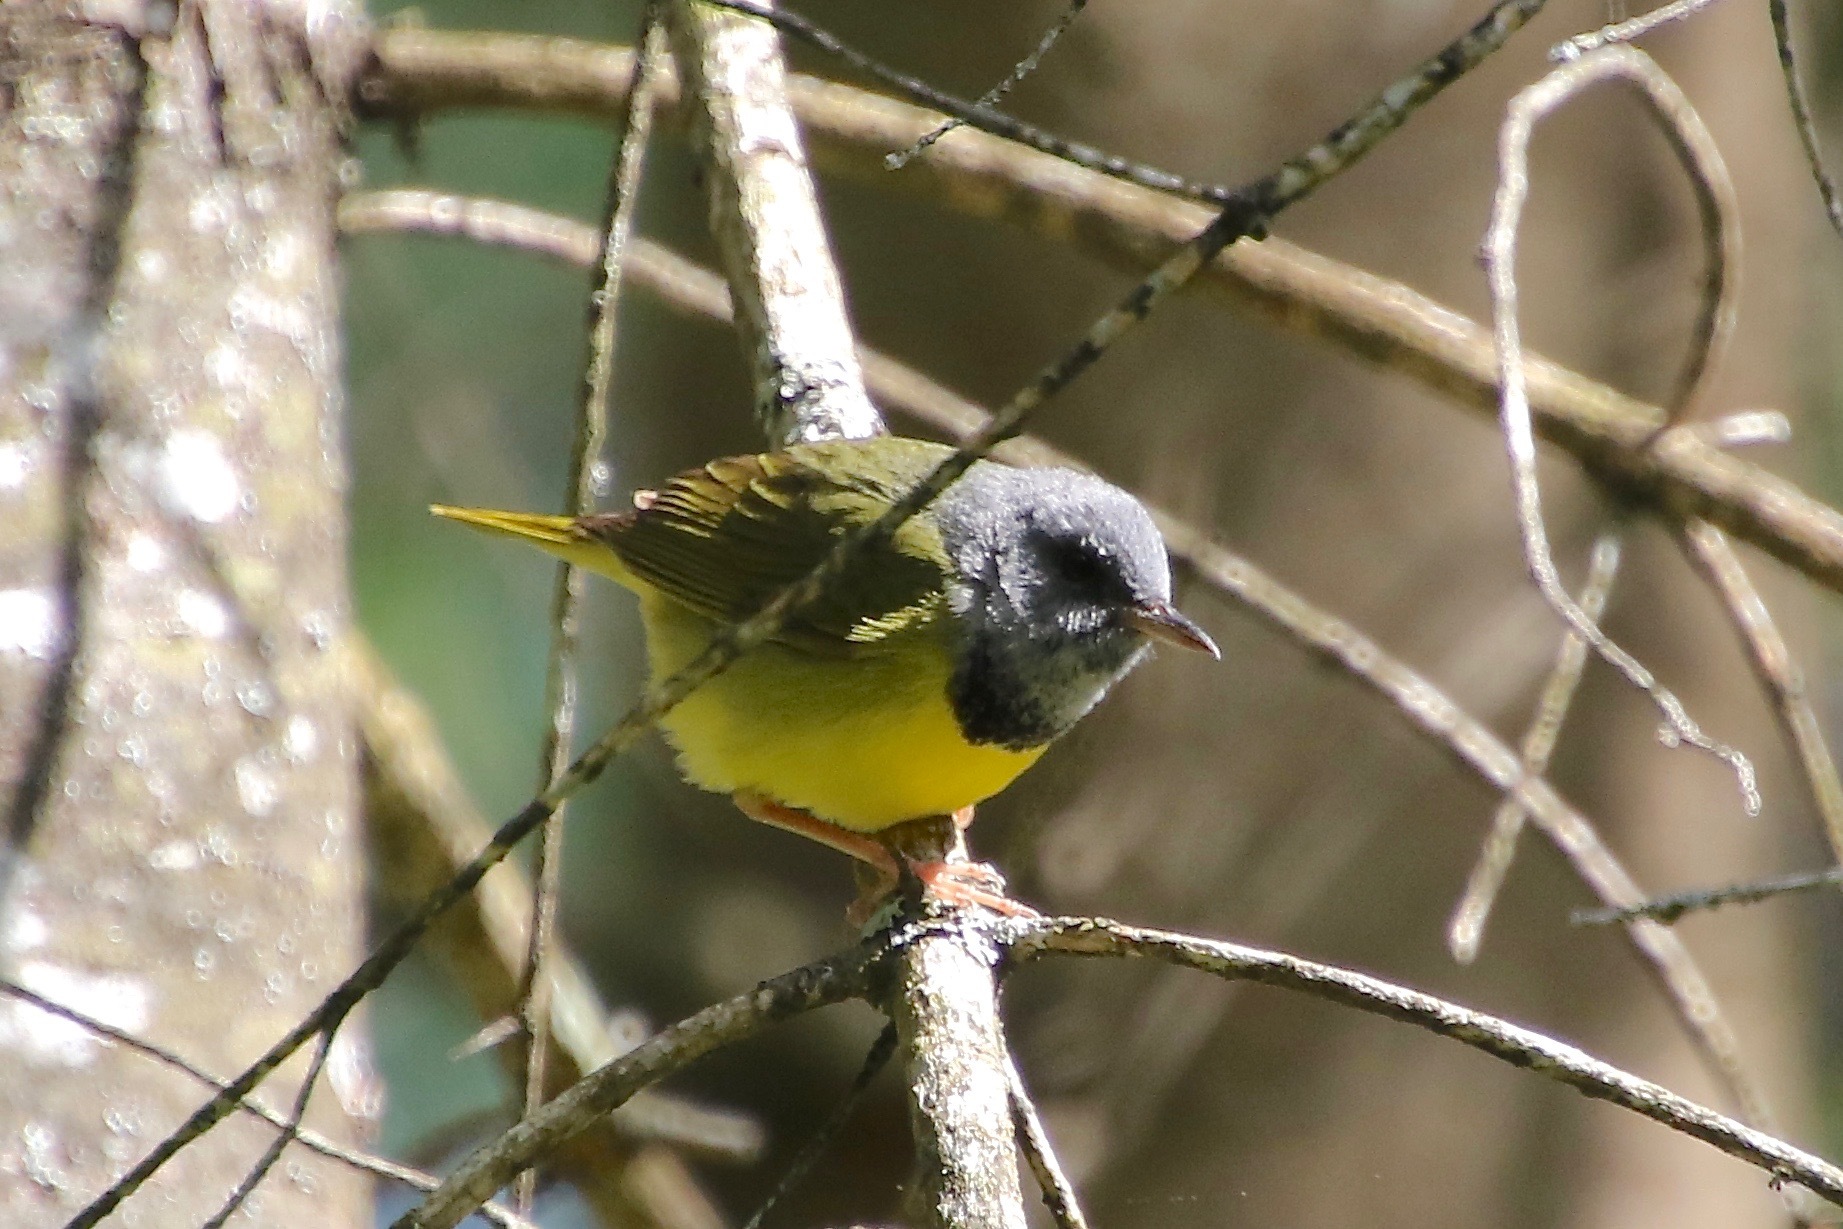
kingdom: Animalia
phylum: Chordata
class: Aves
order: Passeriformes
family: Parulidae
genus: Geothlypis
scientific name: Geothlypis philadelphia
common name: Mourning warbler
